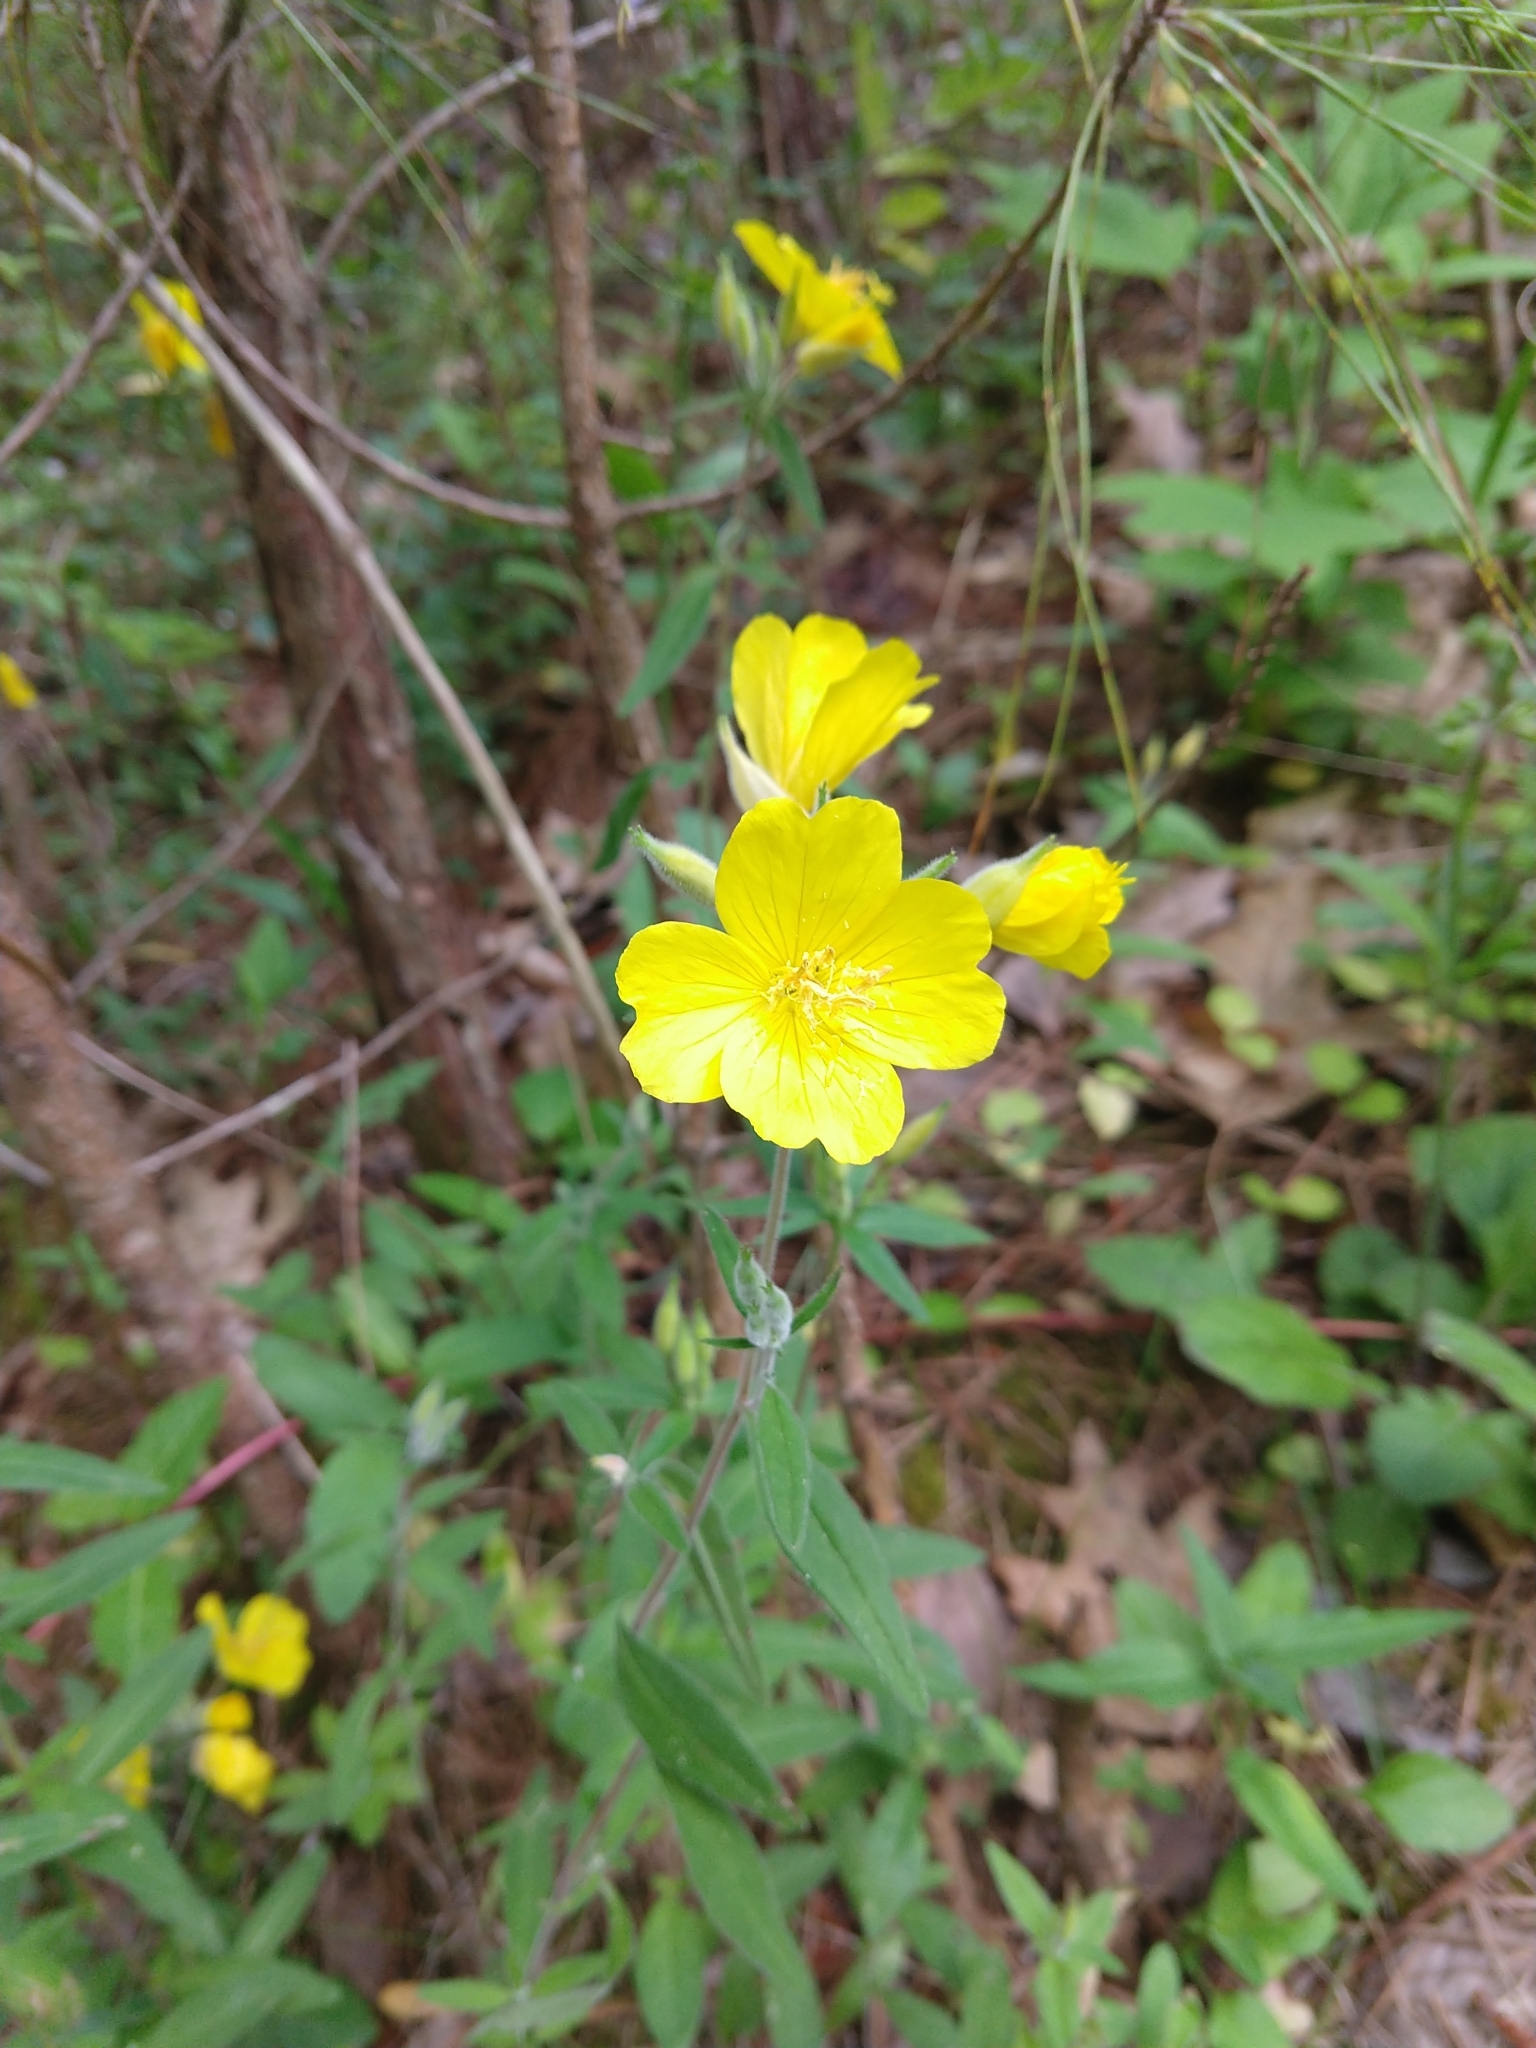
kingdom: Plantae
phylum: Tracheophyta
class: Magnoliopsida
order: Myrtales
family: Onagraceae
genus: Oenothera
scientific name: Oenothera fruticosa
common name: Southern sundrops
